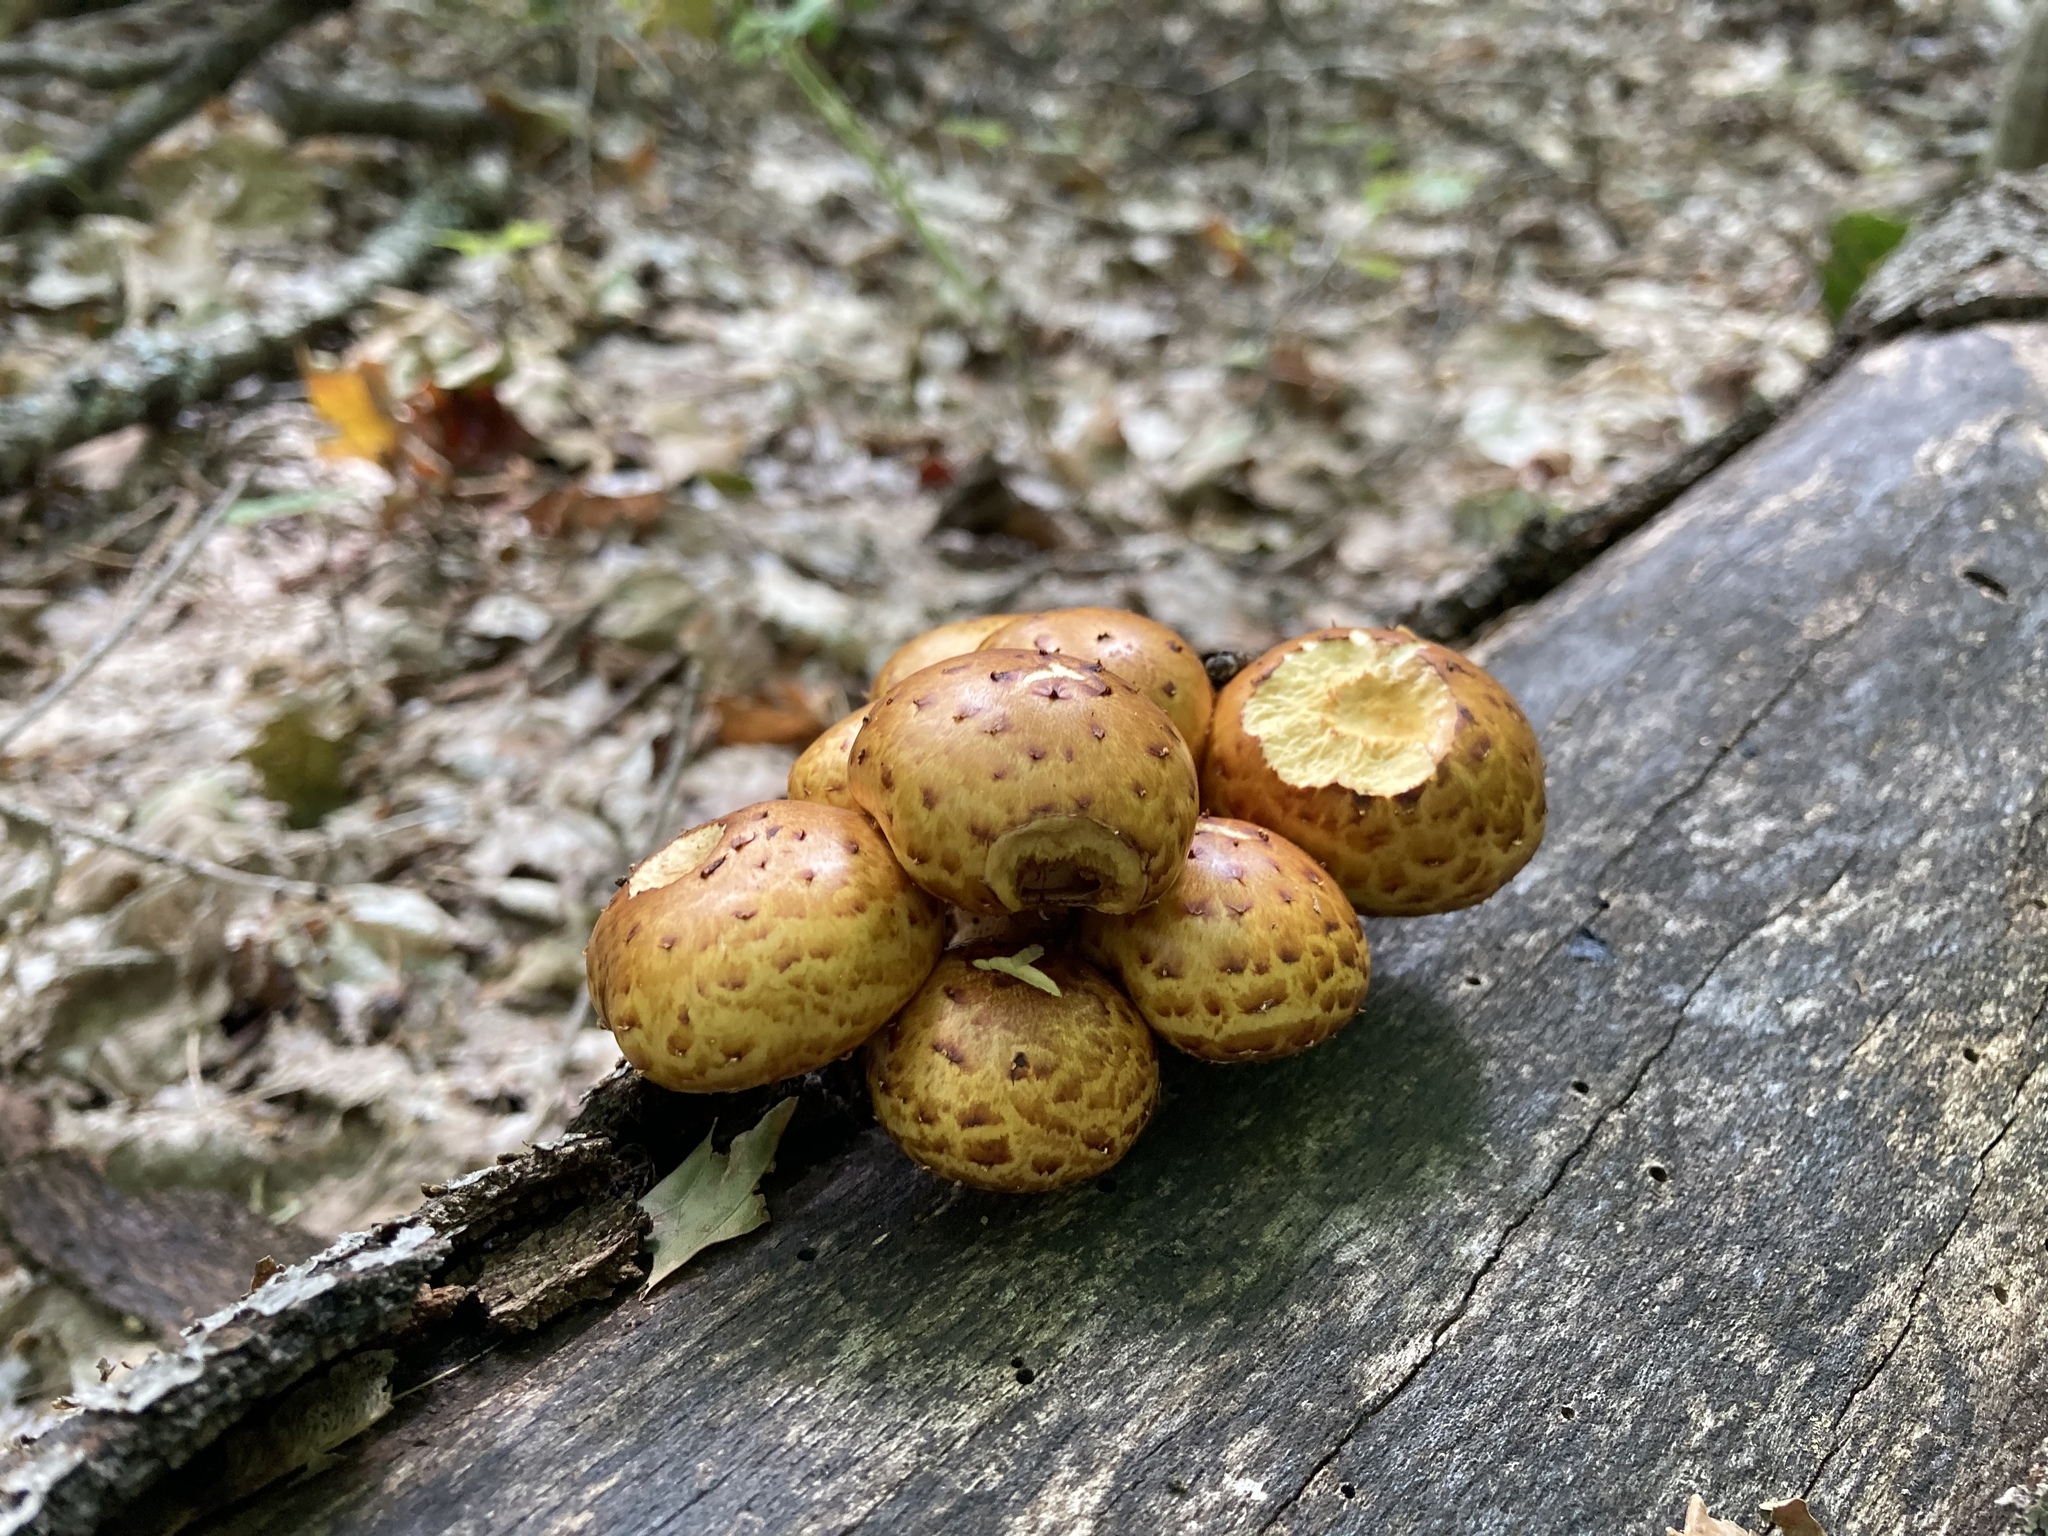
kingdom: Fungi
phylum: Basidiomycota
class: Agaricomycetes
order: Agaricales
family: Strophariaceae
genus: Pholiota
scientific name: Pholiota aurivella
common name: Golden scalycap
